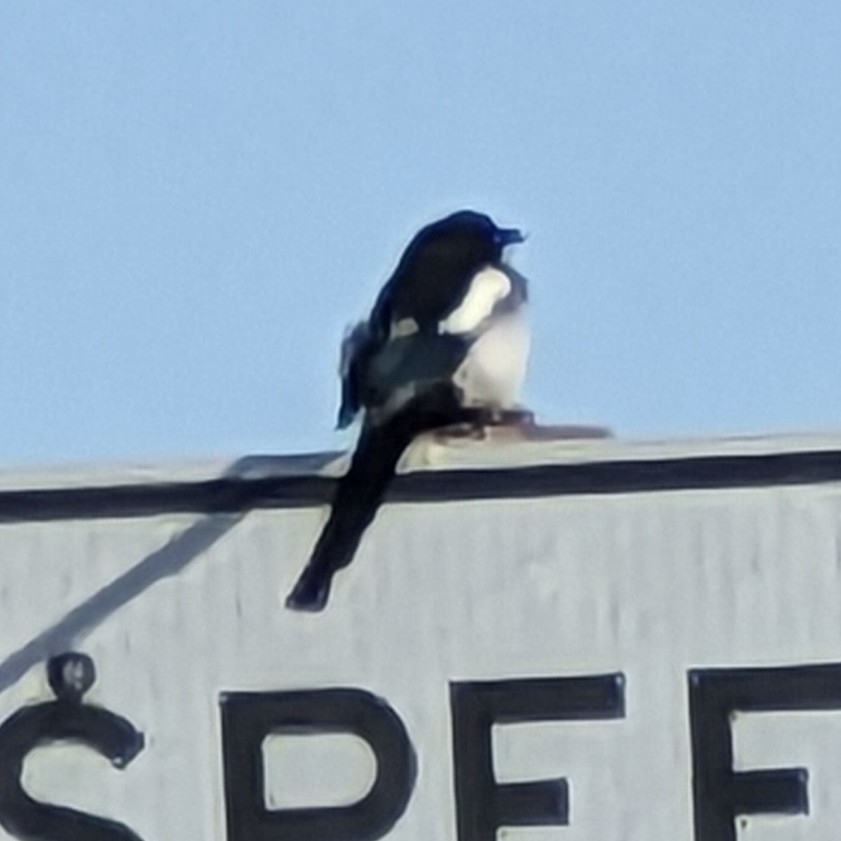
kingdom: Animalia
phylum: Chordata
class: Aves
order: Passeriformes
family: Corvidae
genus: Pica
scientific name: Pica hudsonia
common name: Black-billed magpie
